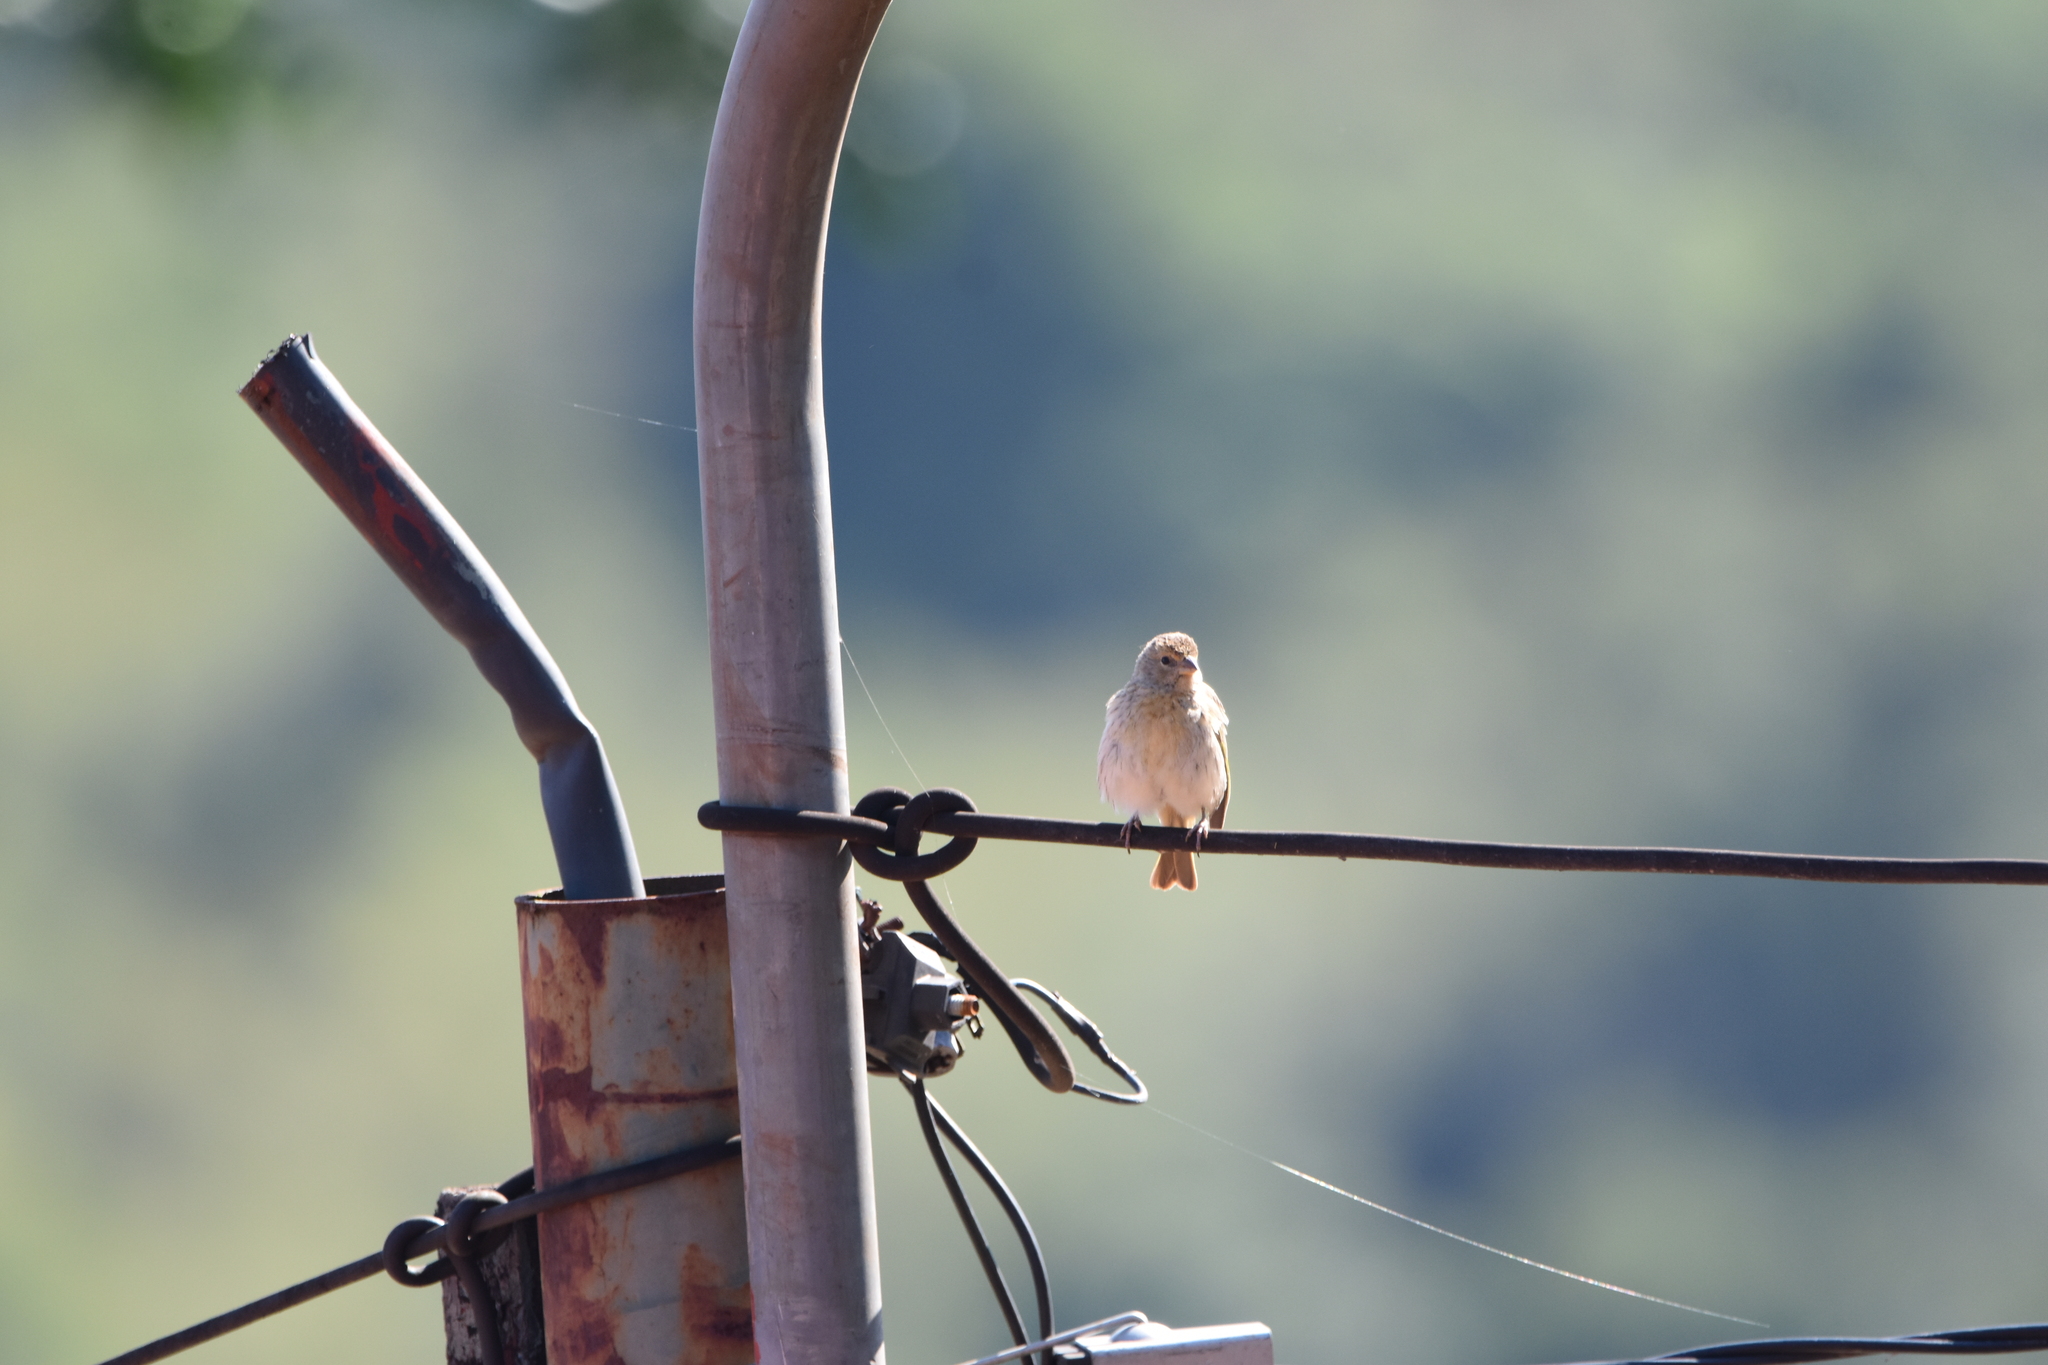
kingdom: Animalia
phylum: Chordata
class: Aves
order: Passeriformes
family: Thraupidae
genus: Sicalis
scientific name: Sicalis flaveola
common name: Saffron finch
